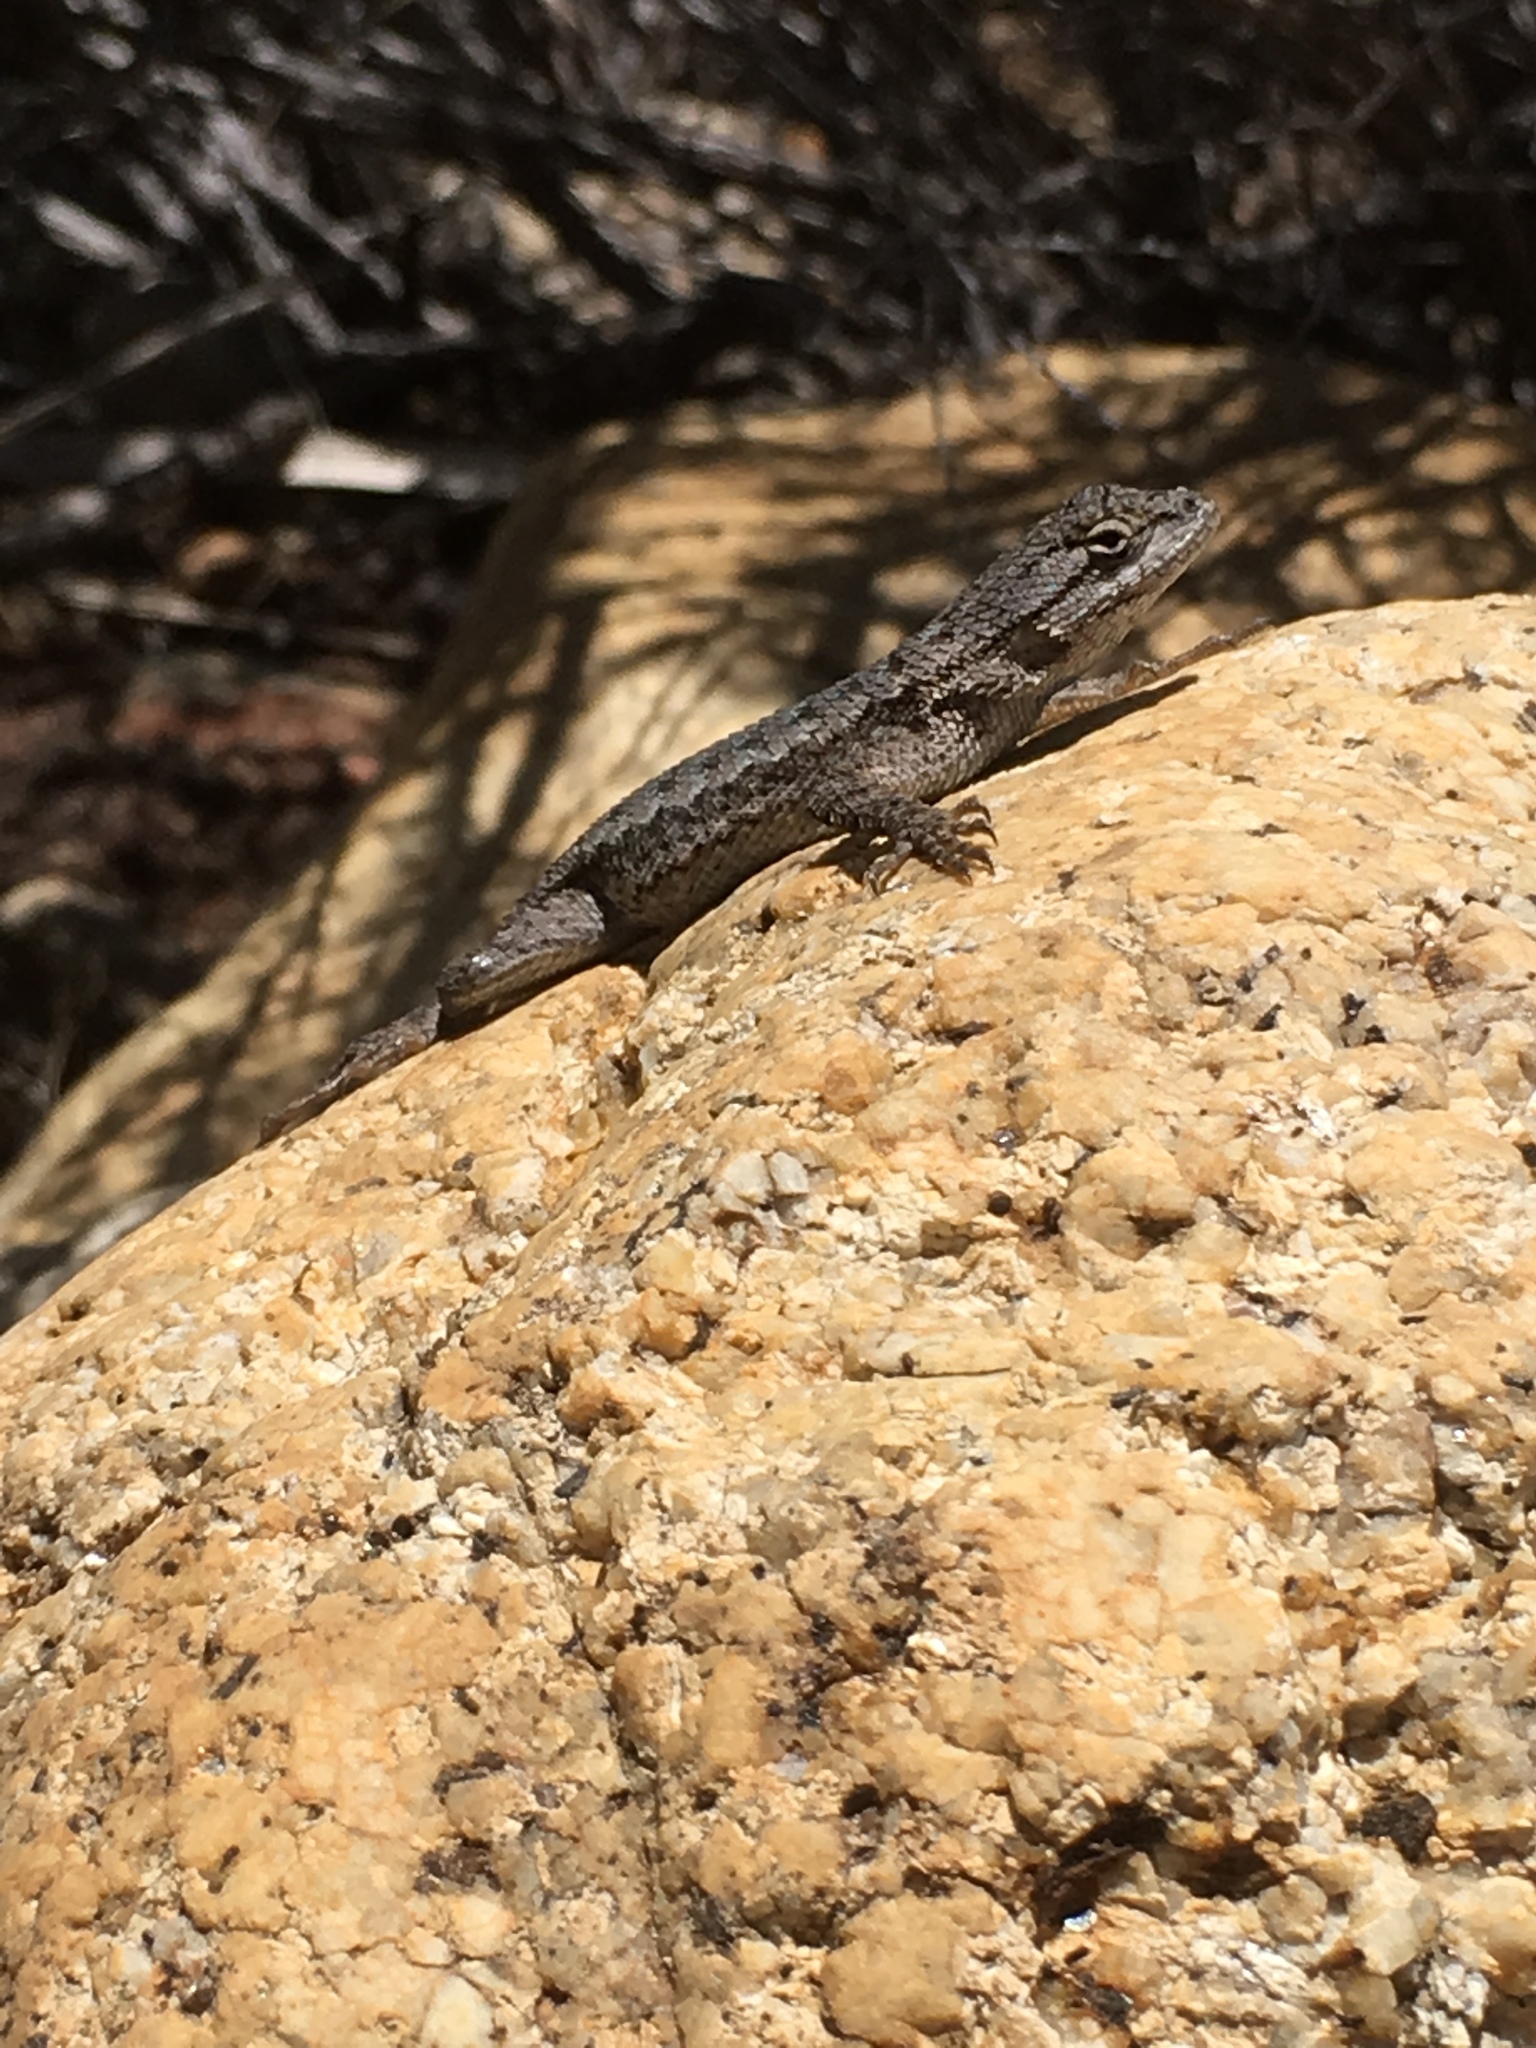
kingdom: Animalia
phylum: Chordata
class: Squamata
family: Phrynosomatidae
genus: Sceloporus
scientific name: Sceloporus occidentalis
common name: Western fence lizard
